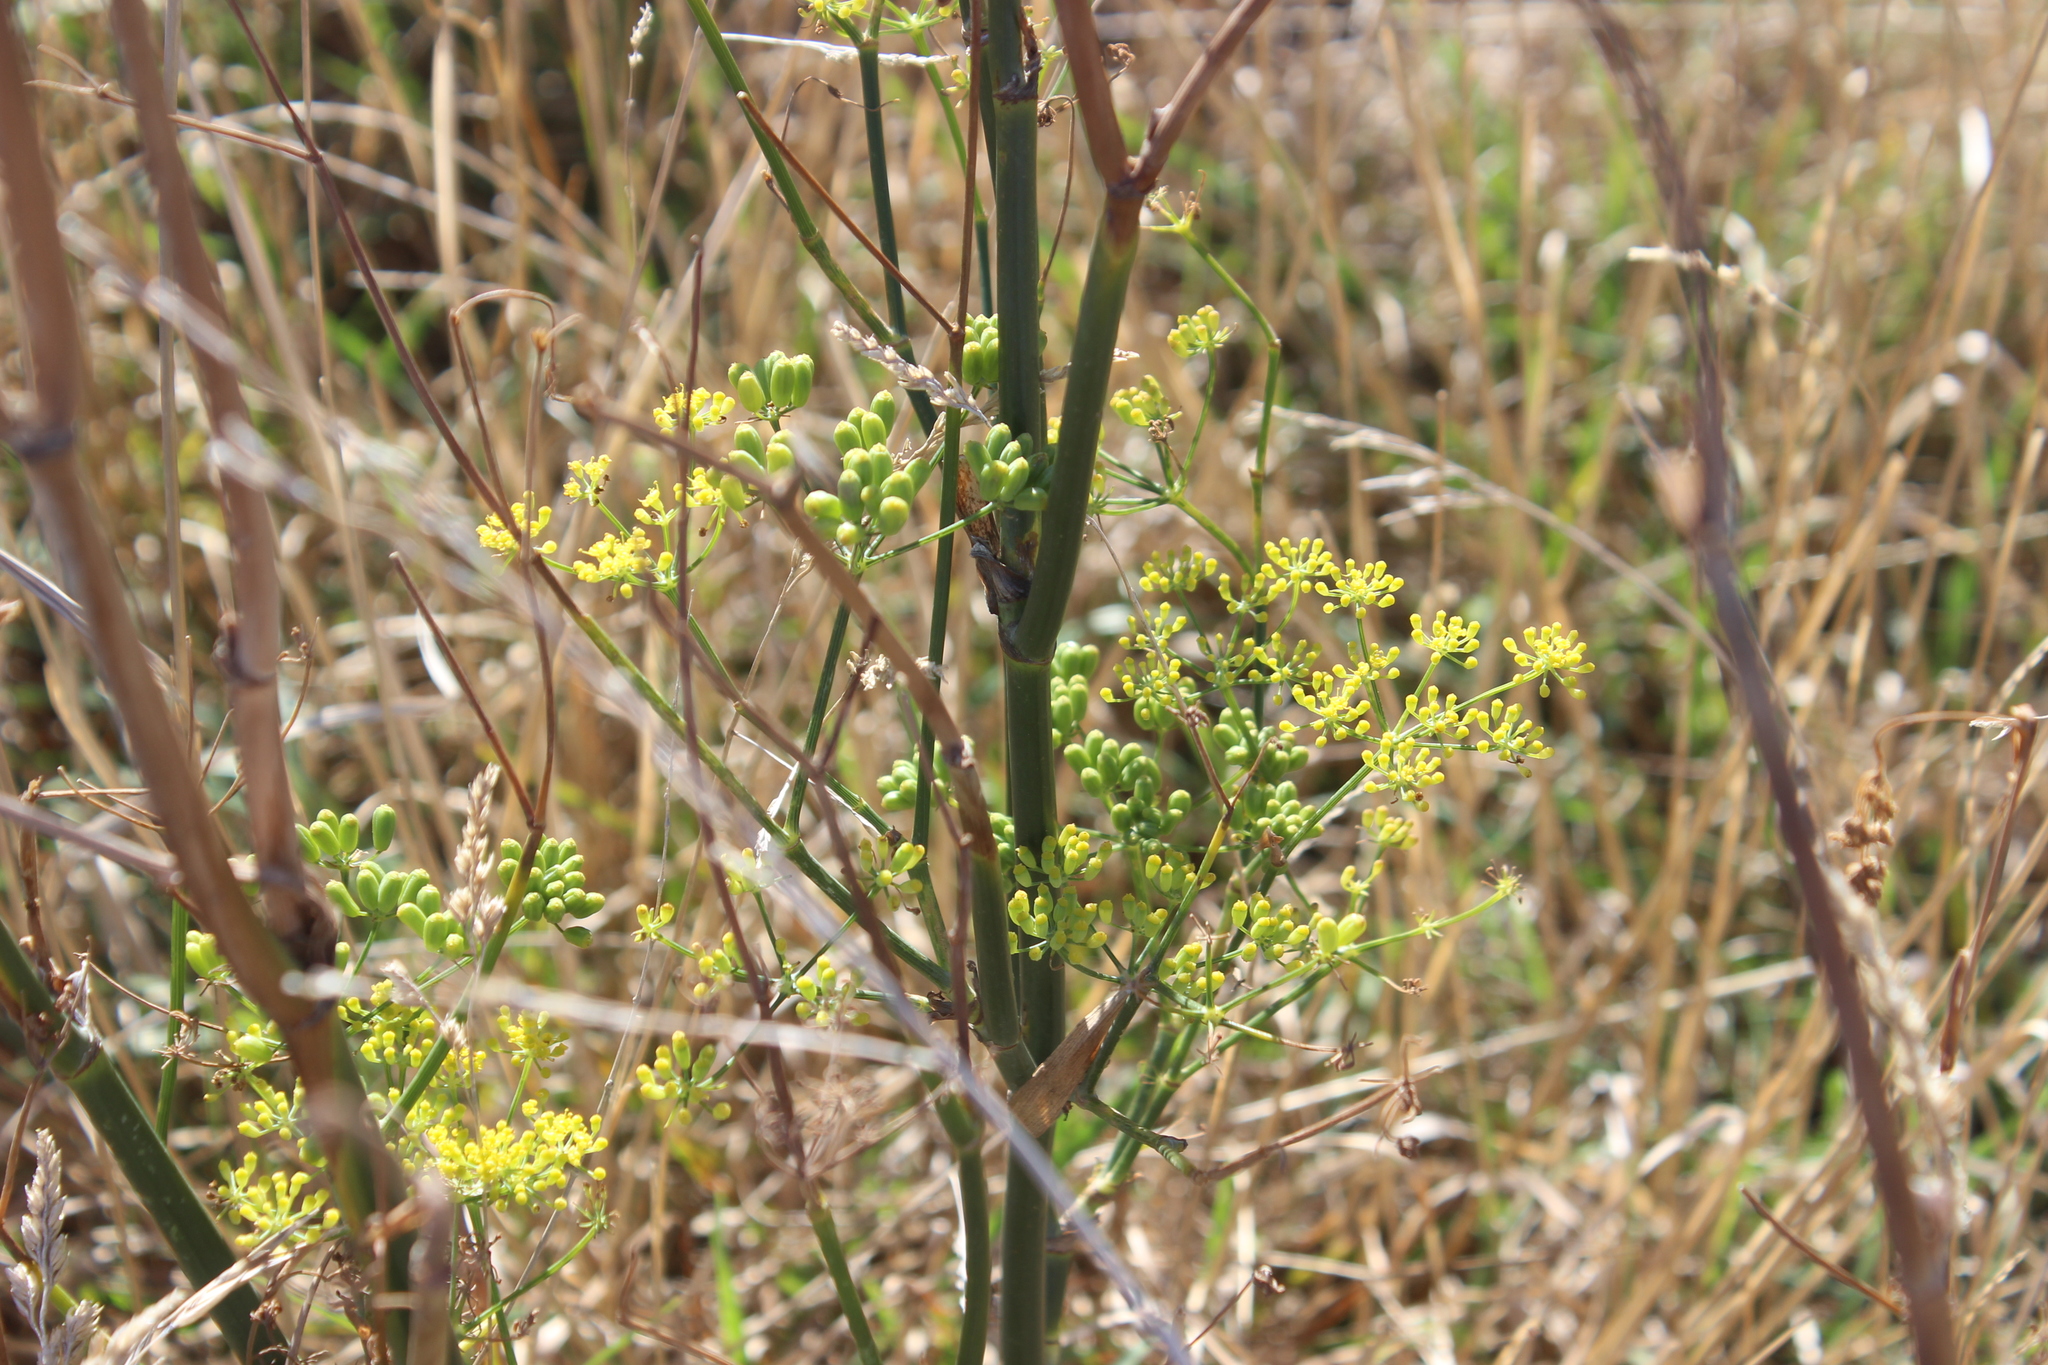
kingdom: Plantae
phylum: Tracheophyta
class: Magnoliopsida
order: Apiales
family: Apiaceae
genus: Foeniculum
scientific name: Foeniculum vulgare
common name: Fennel
